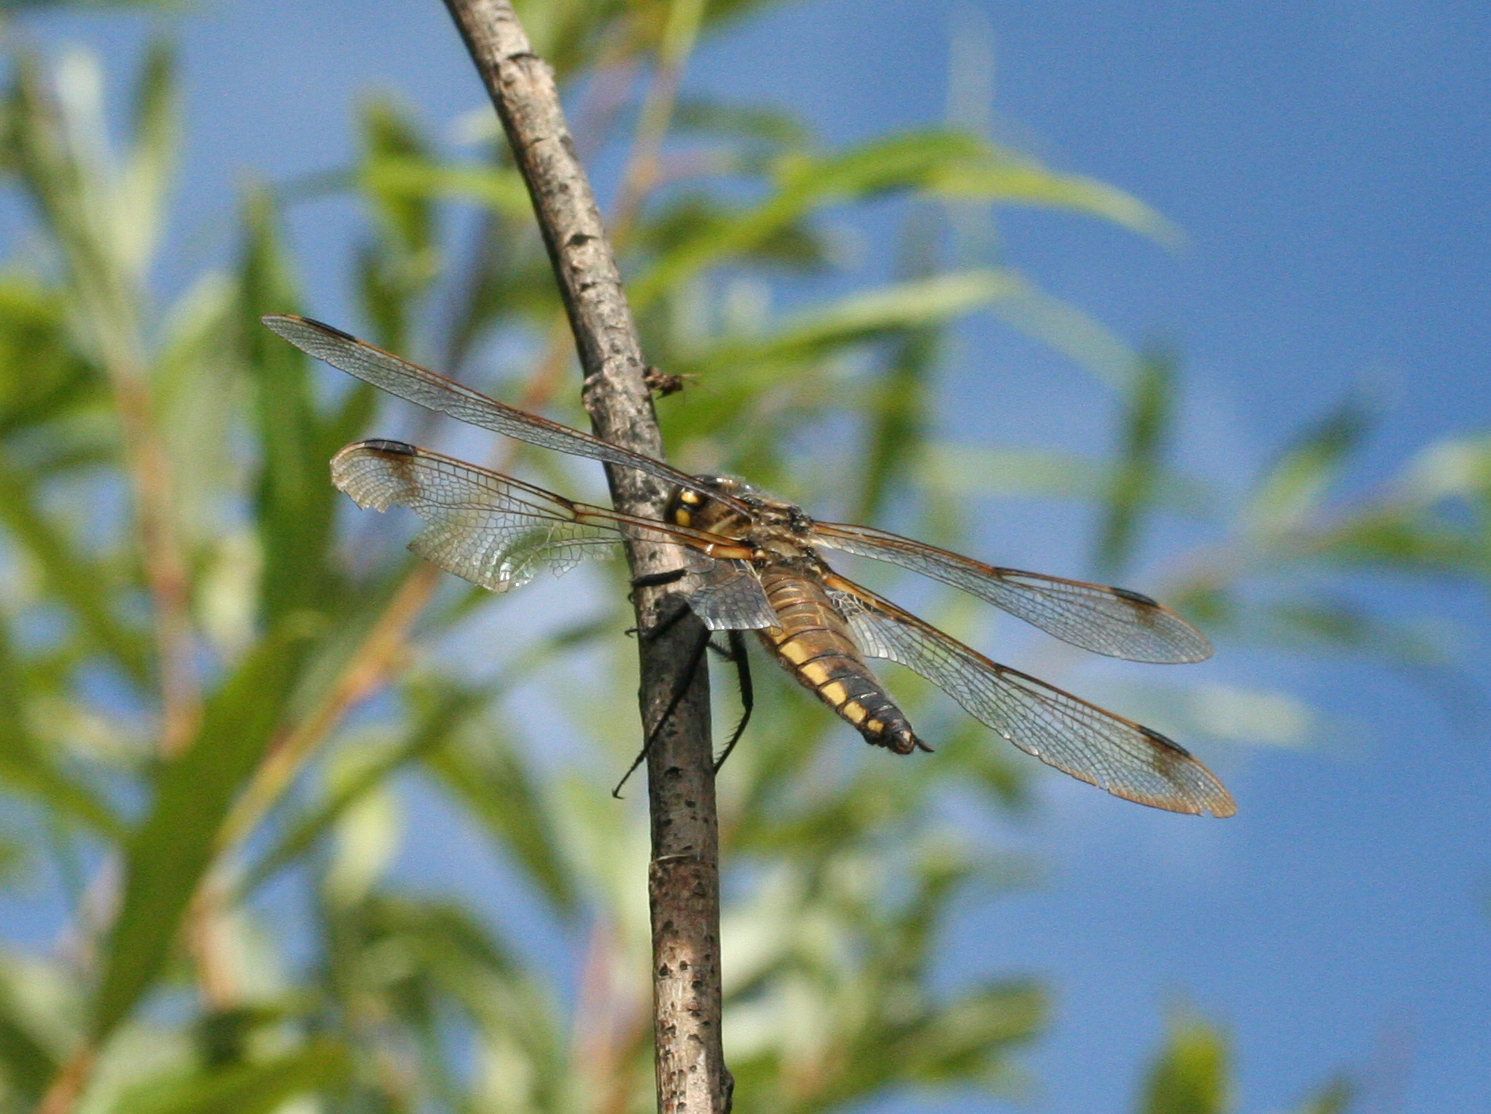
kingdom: Animalia
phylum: Arthropoda
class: Insecta
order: Odonata
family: Libellulidae
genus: Libellula
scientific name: Libellula quadrimaculata
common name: Four-spotted chaser
